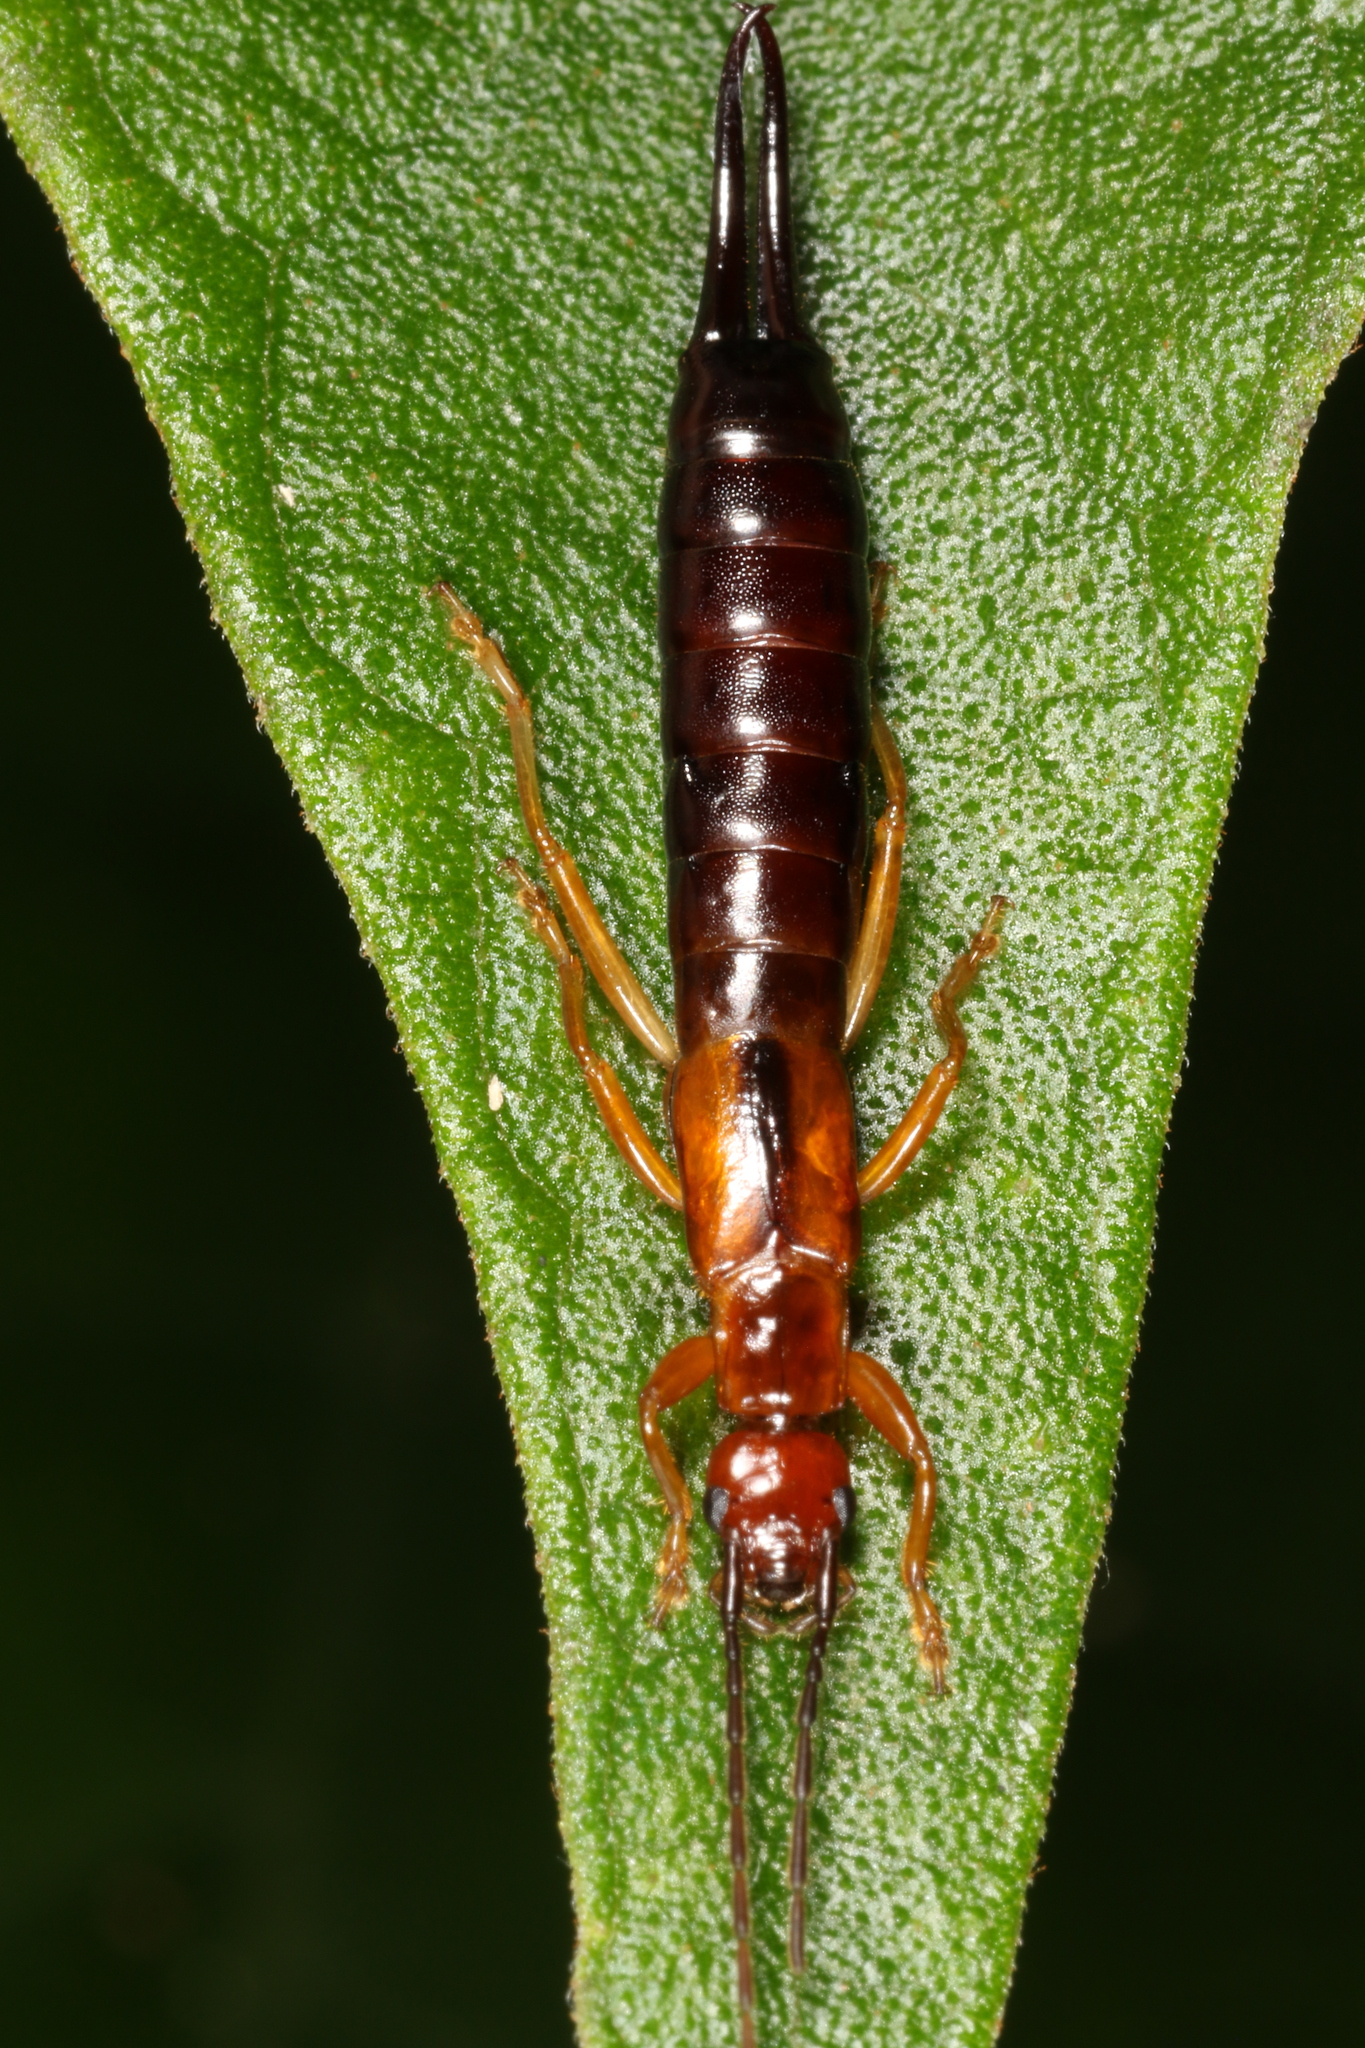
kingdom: Animalia
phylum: Arthropoda
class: Insecta
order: Dermaptera
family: Forficulidae
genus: Doru
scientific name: Doru gracilis
